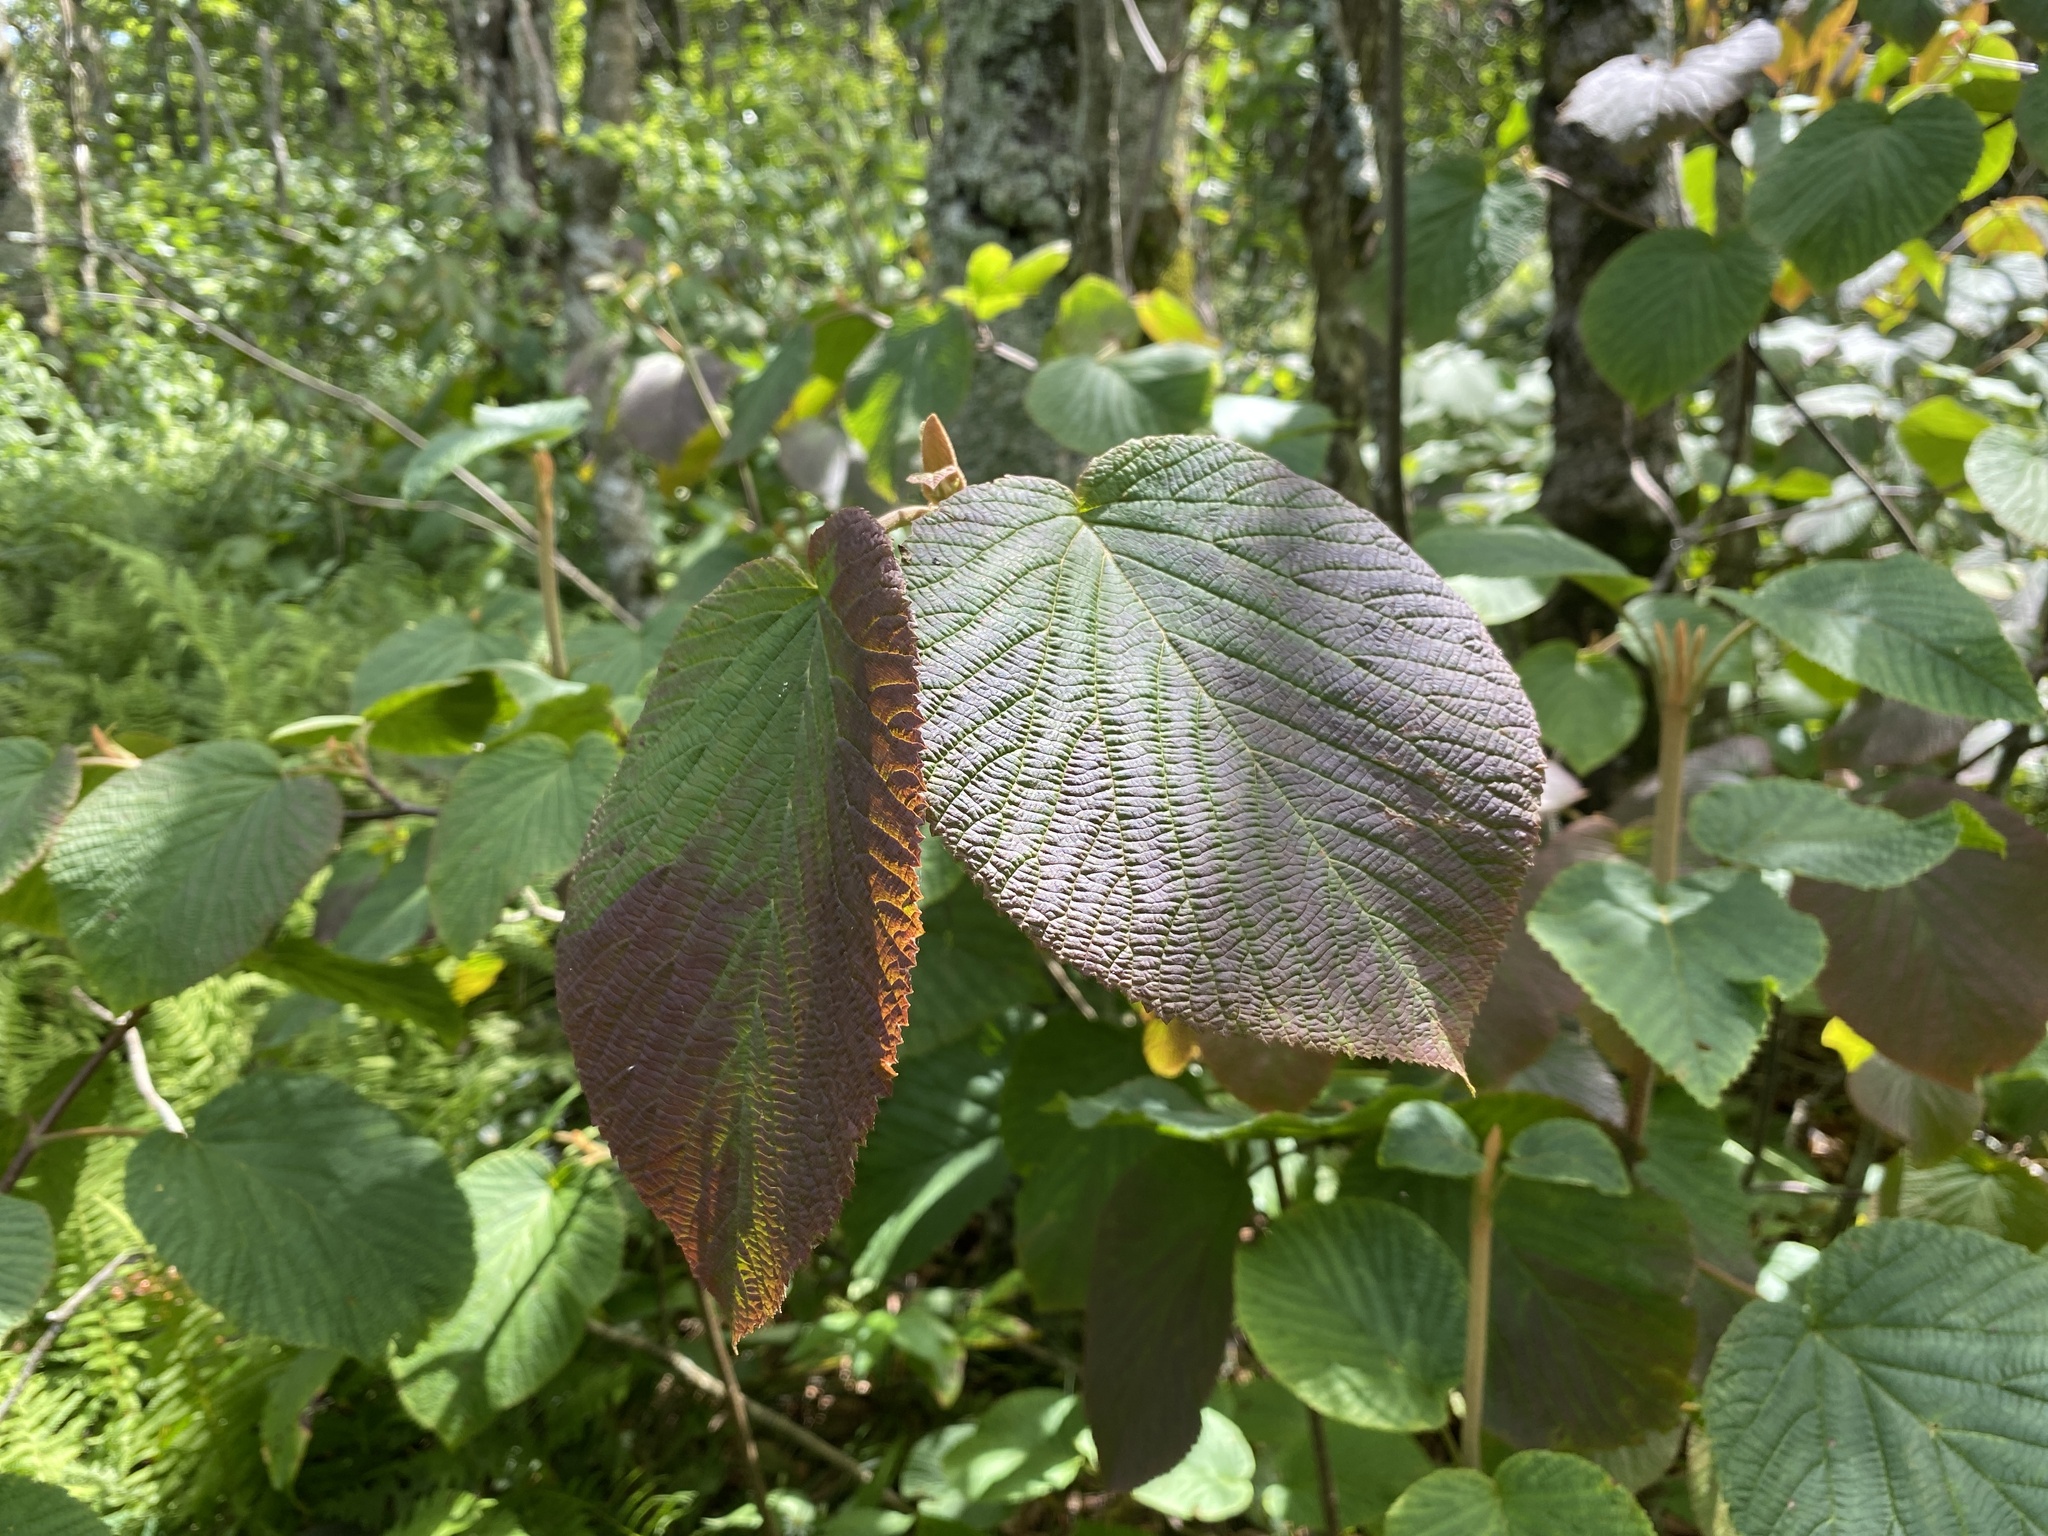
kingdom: Plantae
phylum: Tracheophyta
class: Magnoliopsida
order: Dipsacales
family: Viburnaceae
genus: Viburnum
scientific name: Viburnum lantanoides
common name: Hobblebush
